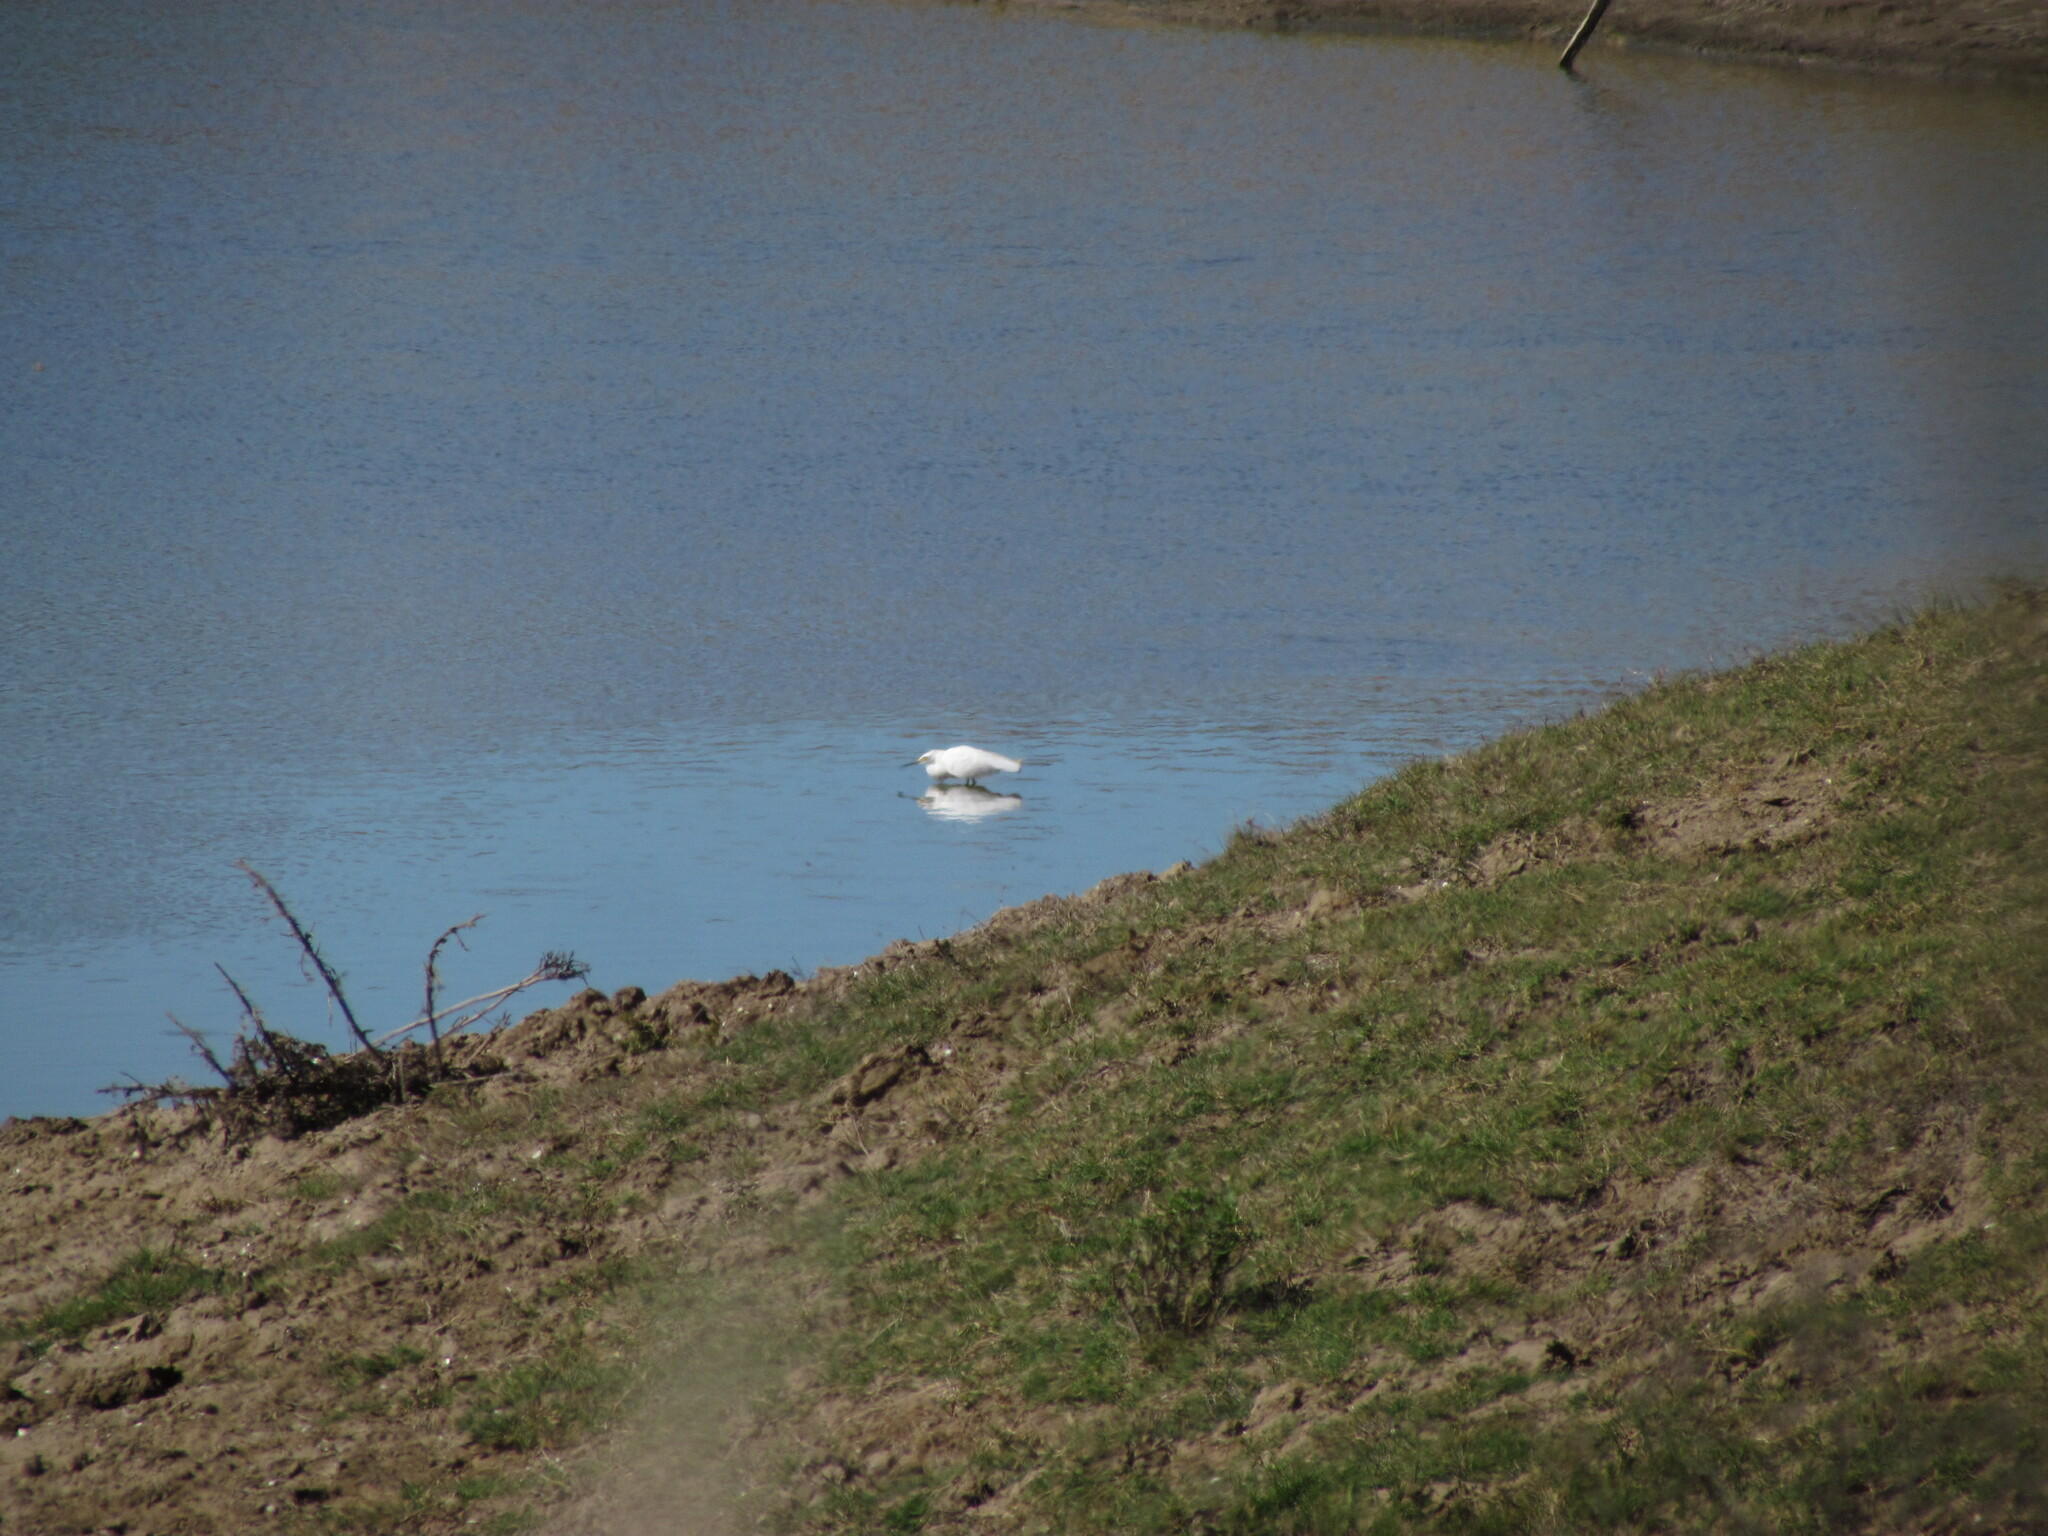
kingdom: Animalia
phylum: Chordata
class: Aves
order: Pelecaniformes
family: Ardeidae
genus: Egretta
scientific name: Egretta thula
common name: Snowy egret
